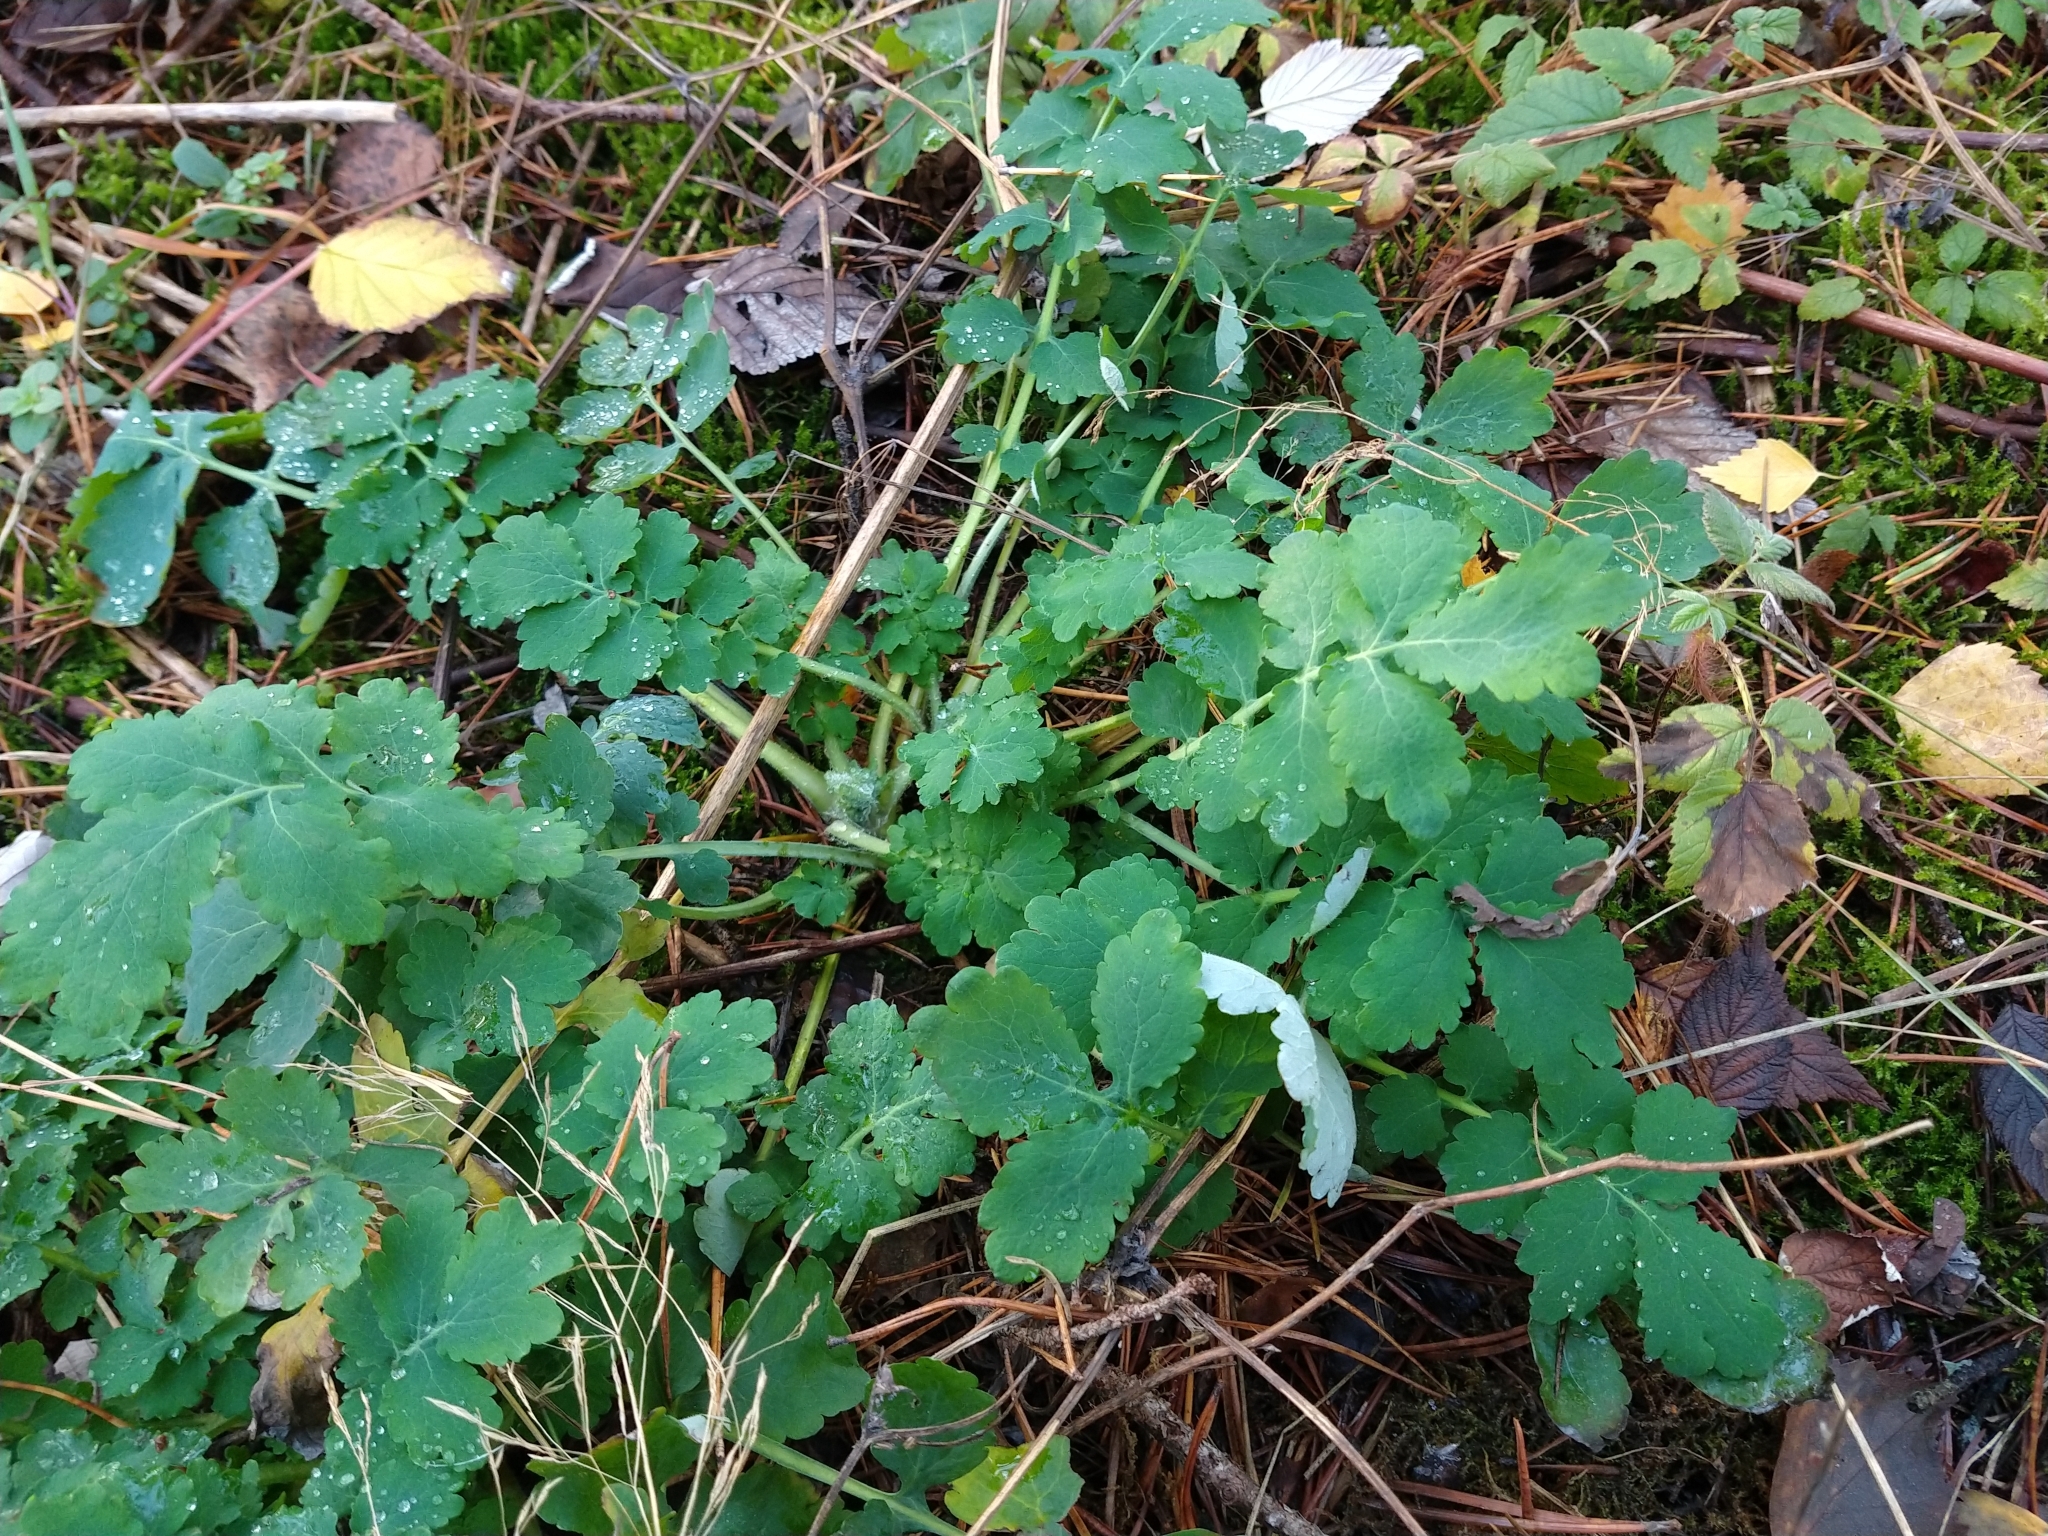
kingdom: Plantae
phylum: Tracheophyta
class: Magnoliopsida
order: Ranunculales
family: Papaveraceae
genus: Chelidonium
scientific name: Chelidonium majus
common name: Greater celandine
